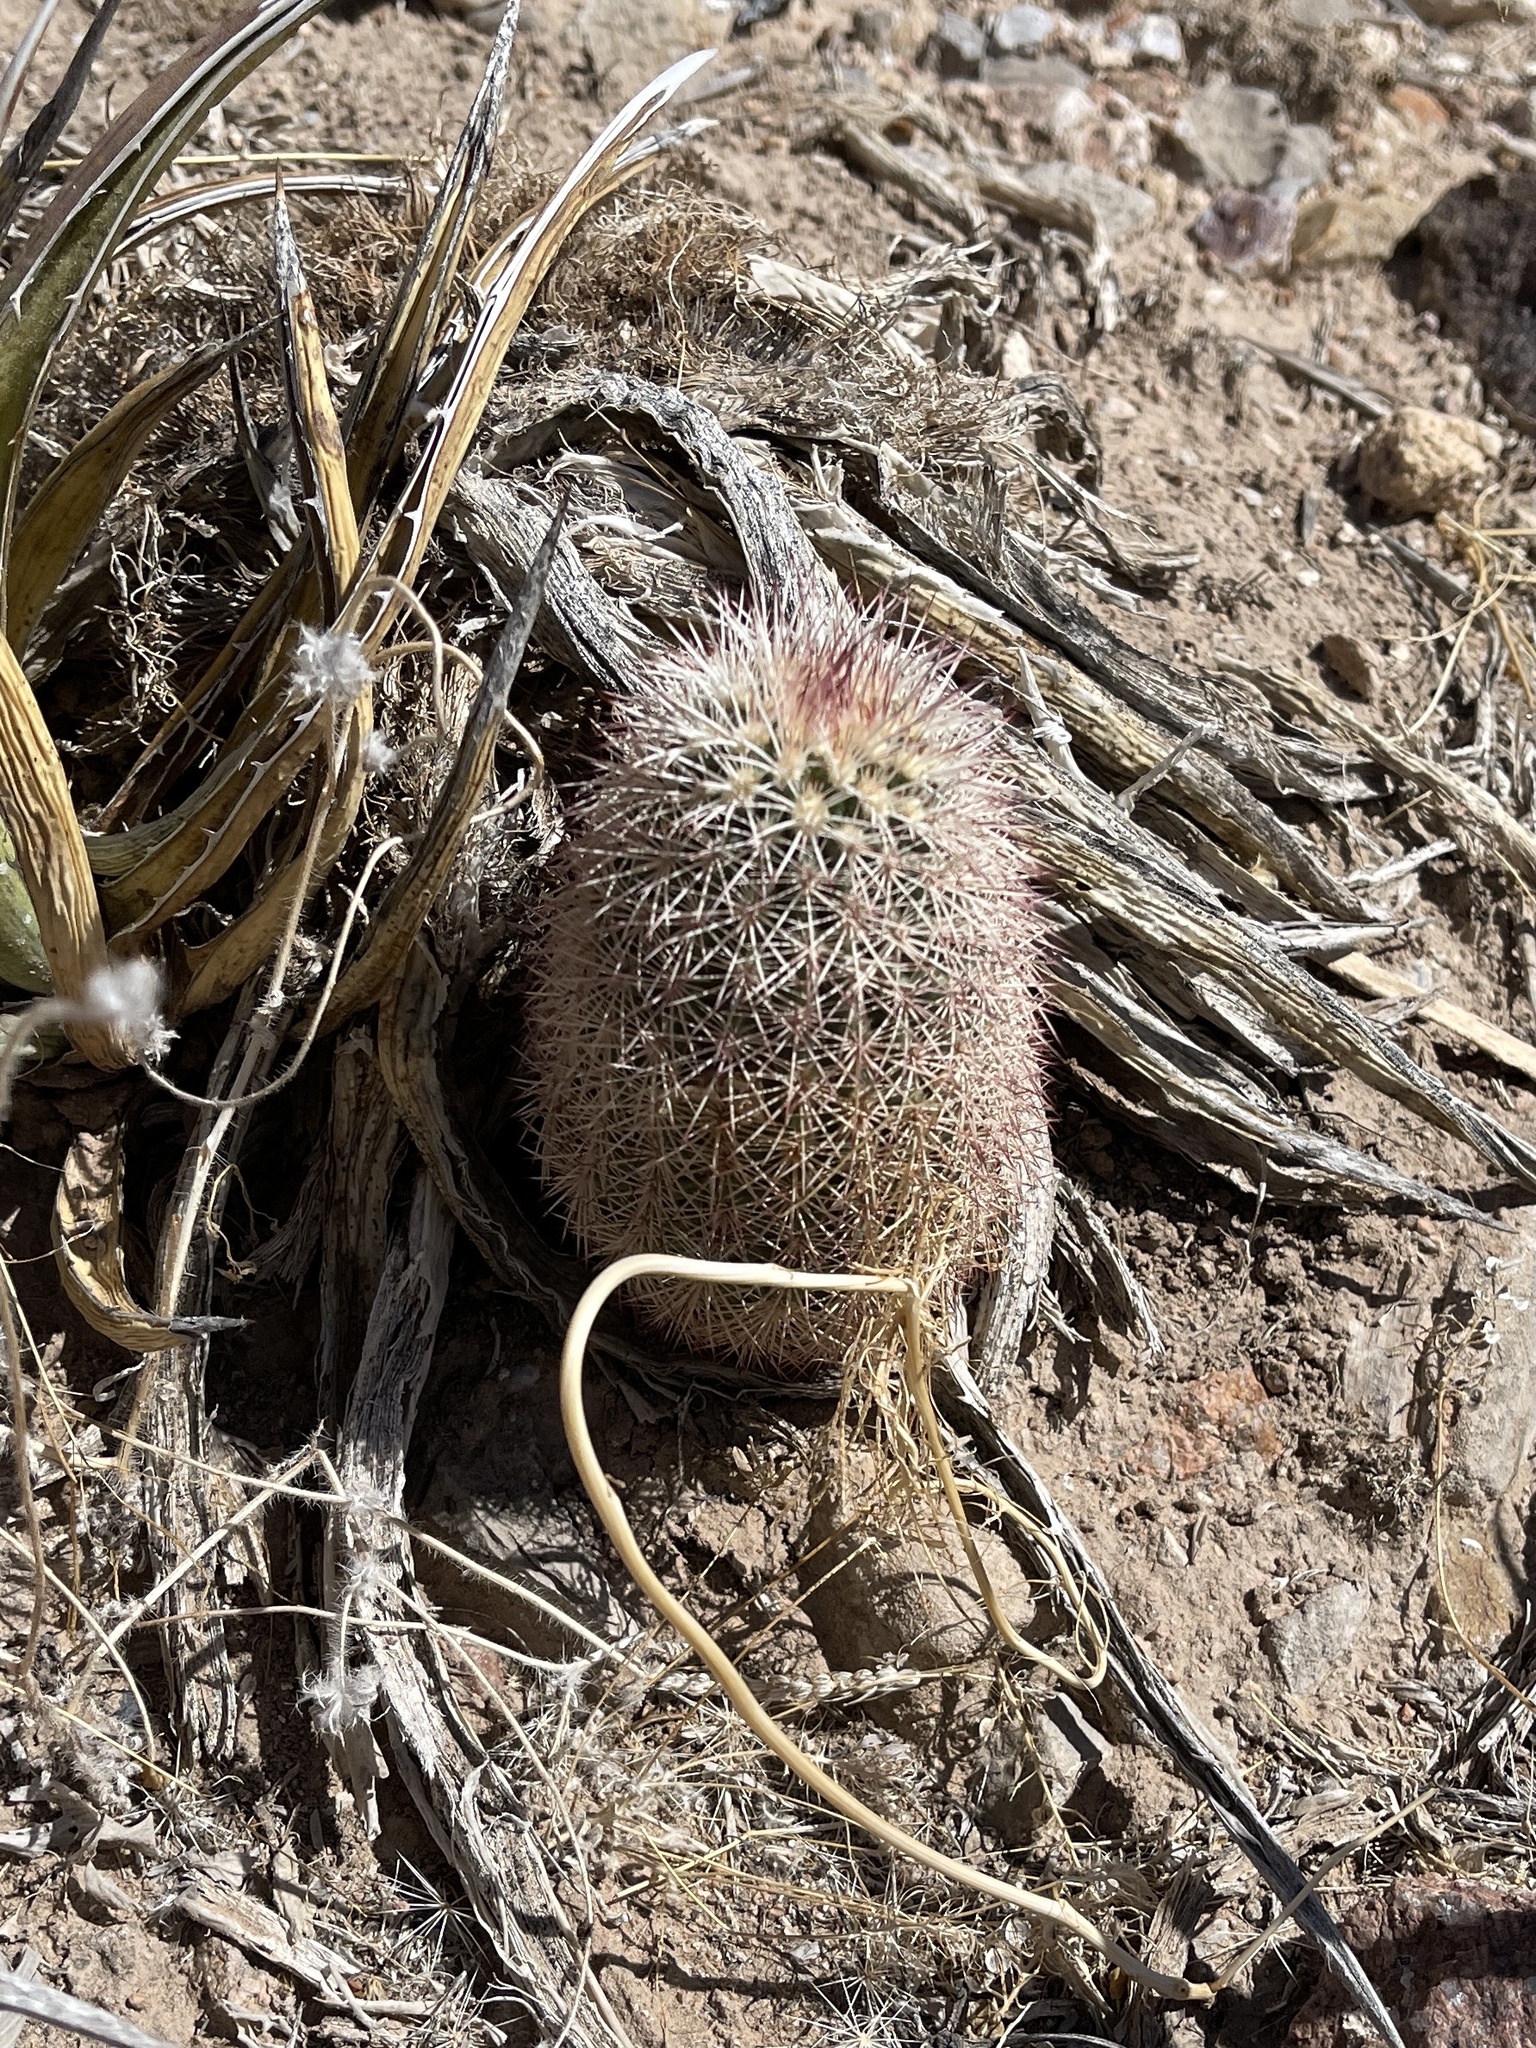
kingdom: Plantae
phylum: Tracheophyta
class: Magnoliopsida
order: Caryophyllales
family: Cactaceae
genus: Echinocereus
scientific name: Echinocereus dasyacanthus
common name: Spiny hedgehog cactus
